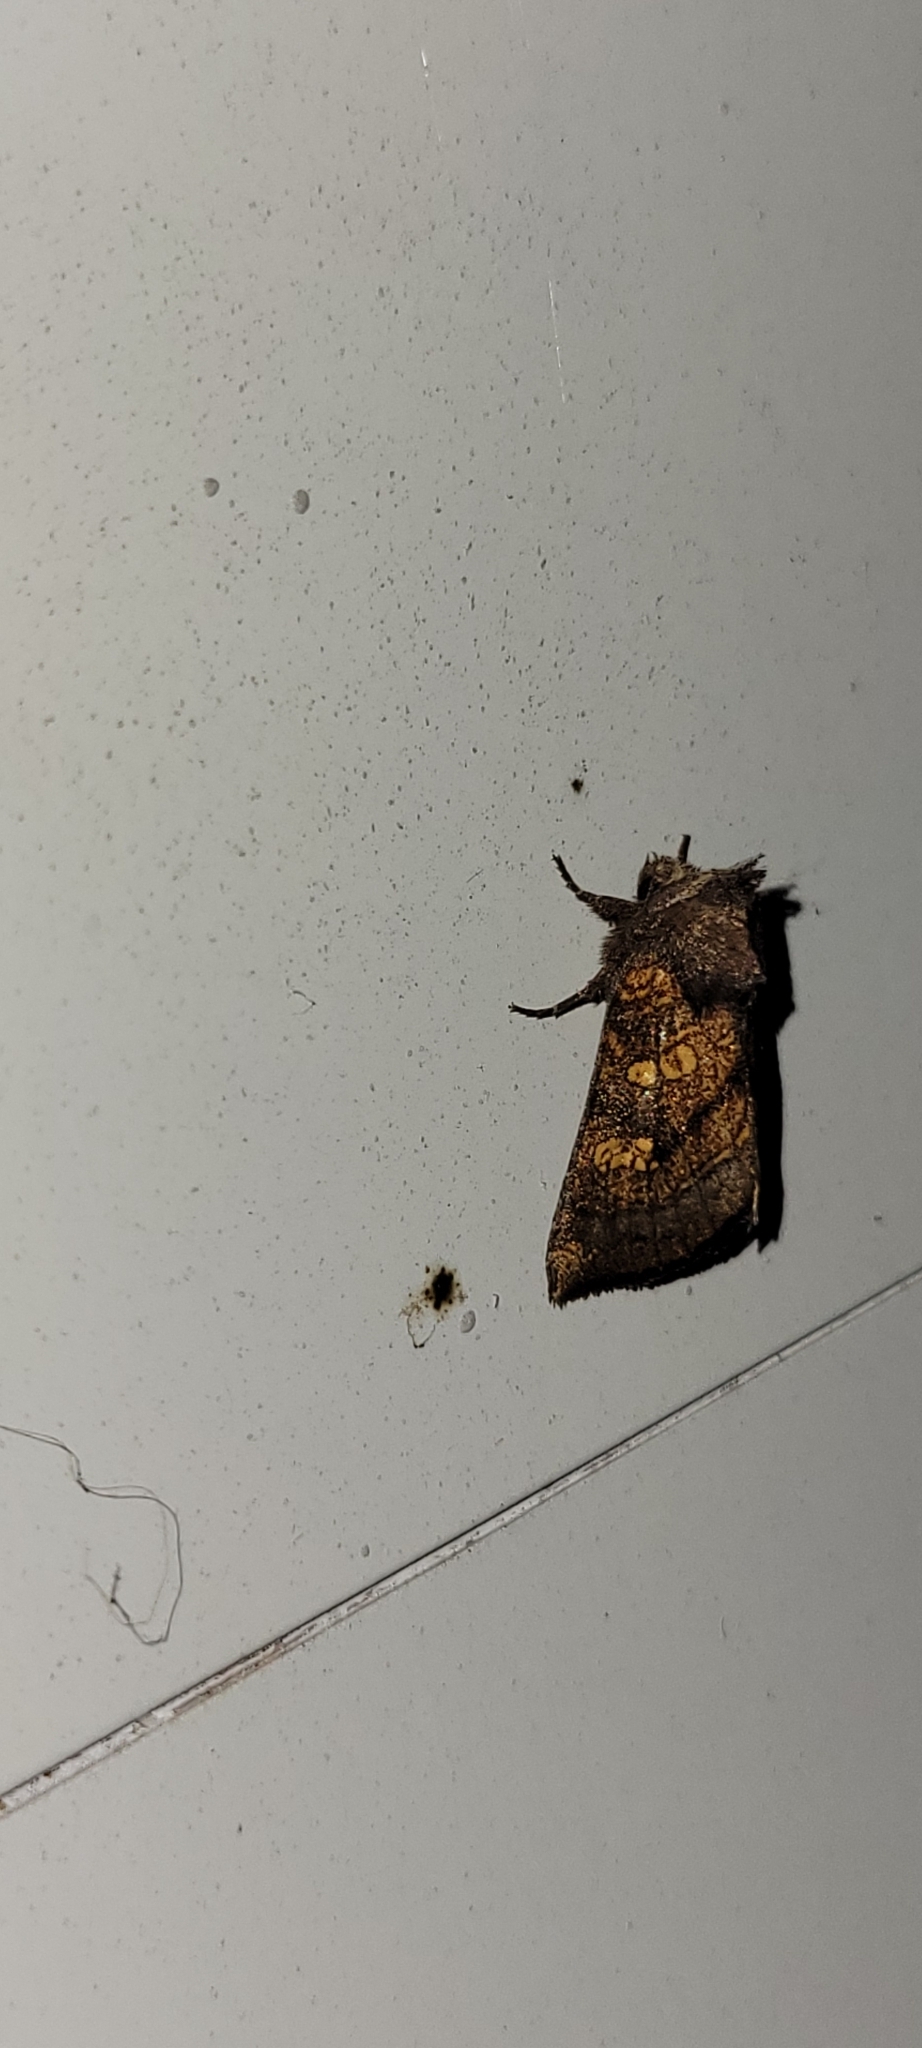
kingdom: Animalia
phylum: Arthropoda
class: Insecta
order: Lepidoptera
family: Noctuidae
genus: Papaipema
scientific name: Papaipema impecuniosa
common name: Aster borer moth
